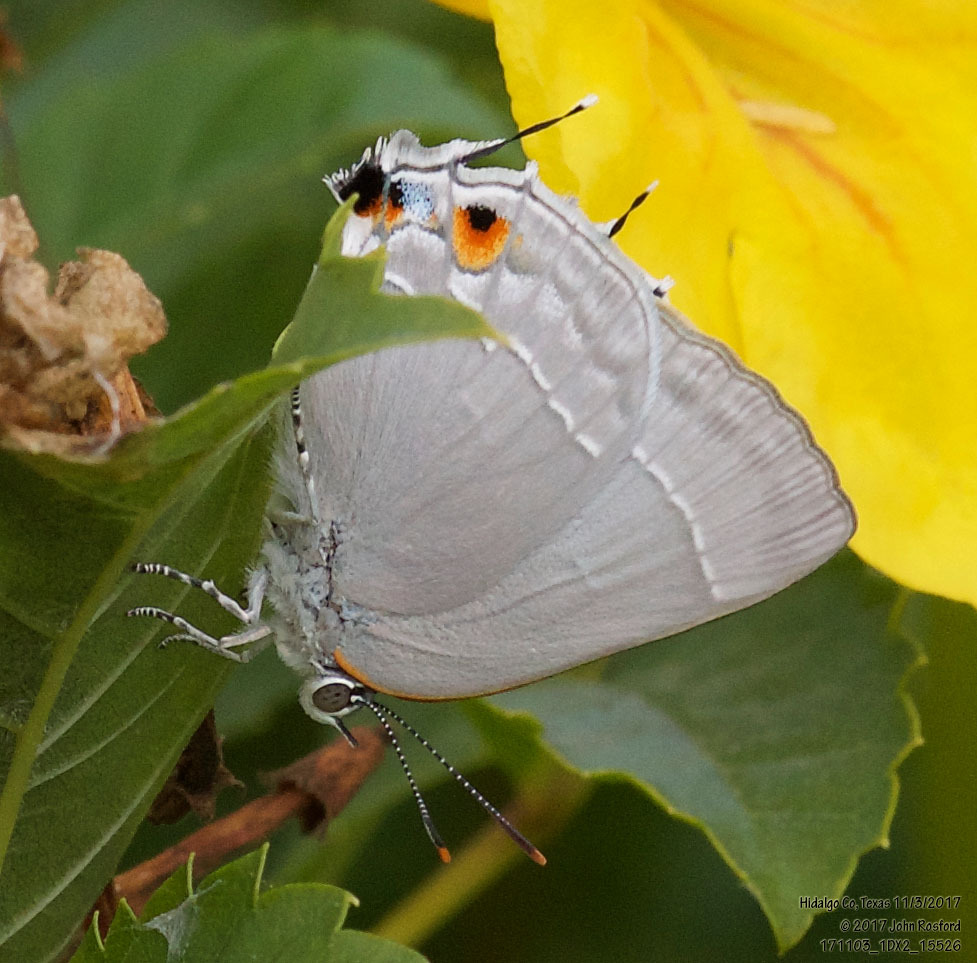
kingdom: Animalia
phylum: Arthropoda
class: Insecta
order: Lepidoptera
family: Lycaenidae
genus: Thecla
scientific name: Thecla marius
